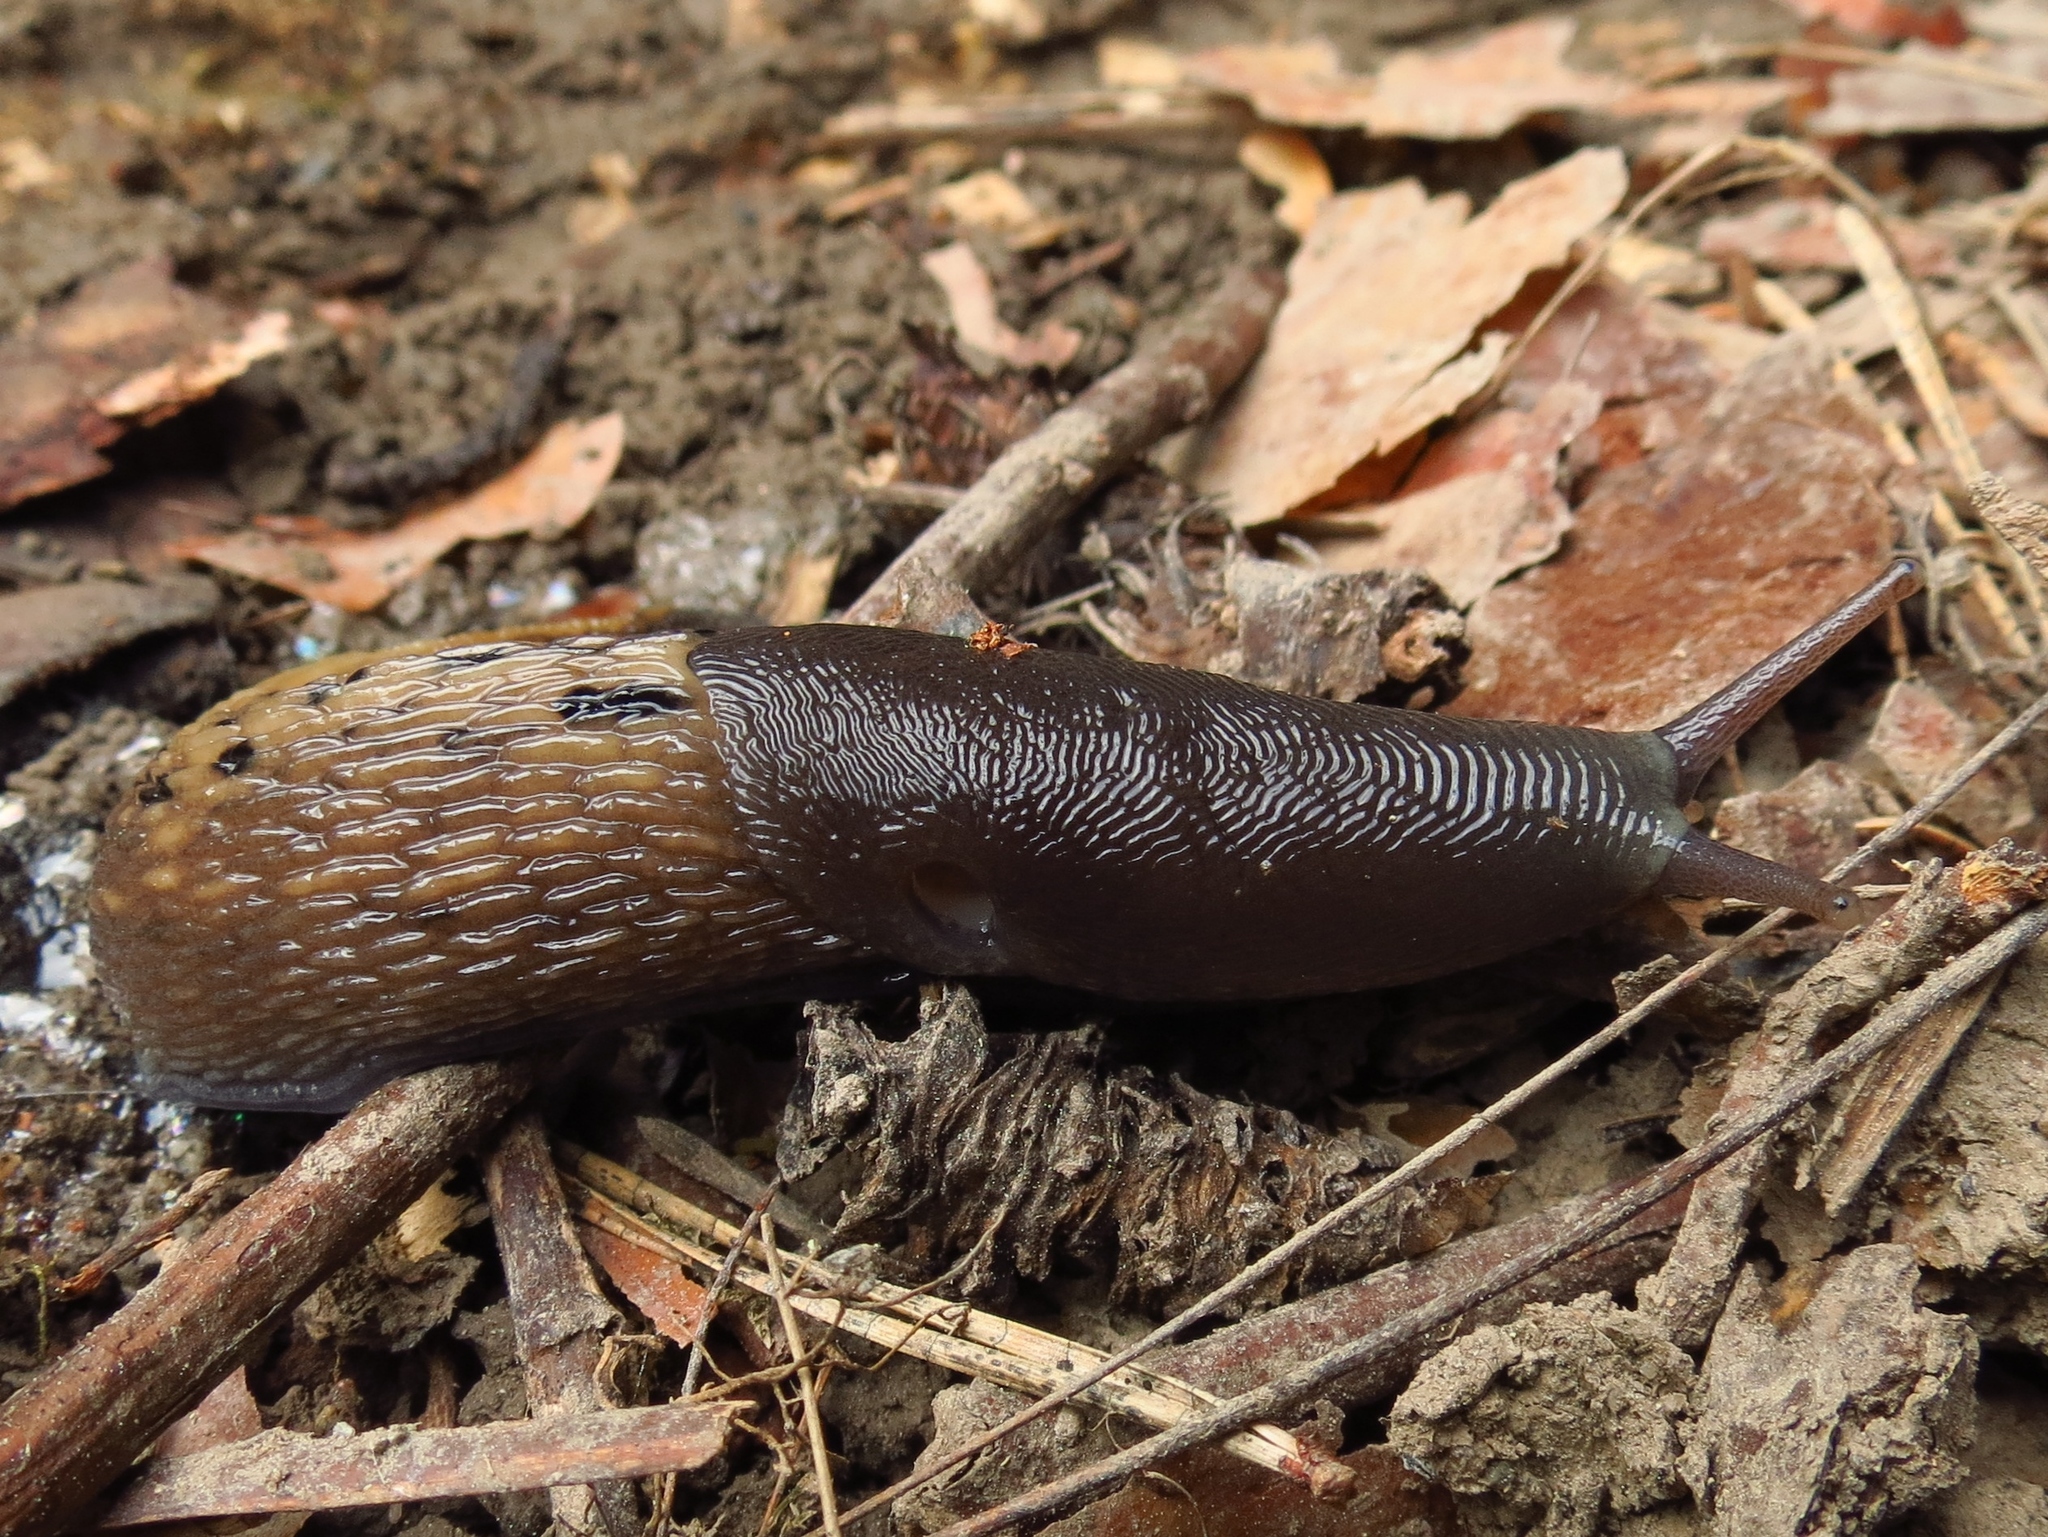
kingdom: Animalia
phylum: Mollusca
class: Gastropoda
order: Stylommatophora
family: Limacidae
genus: Limax
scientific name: Limax cinereoniger
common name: Ash-black slug
